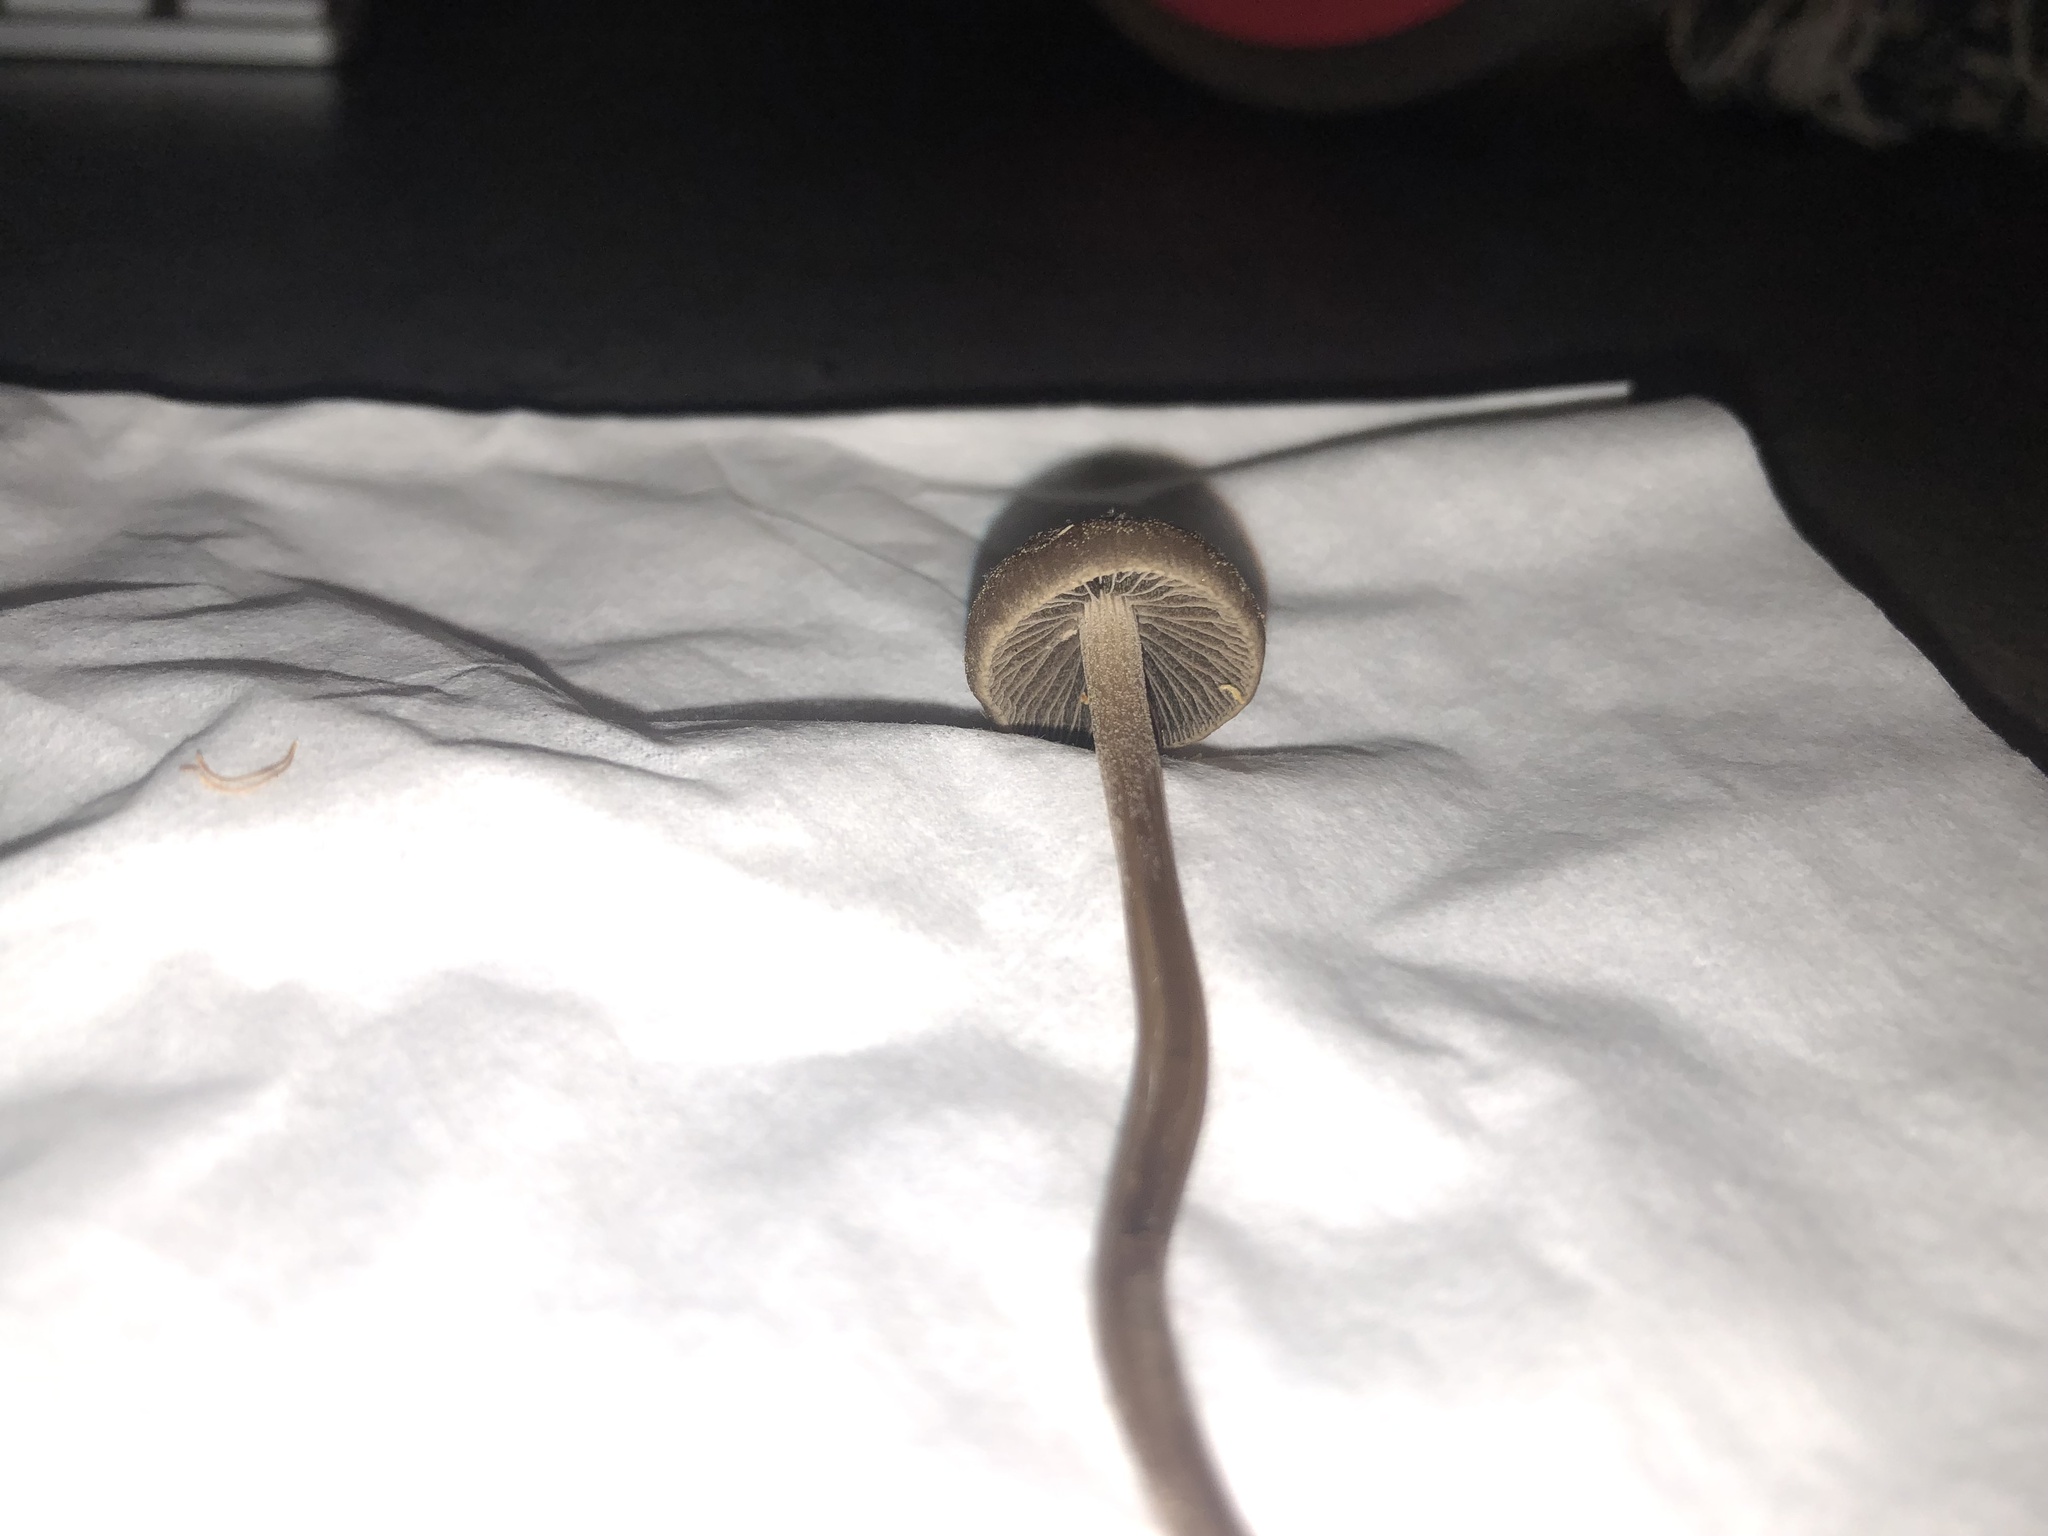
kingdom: Fungi
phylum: Basidiomycota
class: Agaricomycetes
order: Agaricales
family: Bolbitiaceae
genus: Panaeolina
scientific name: Panaeolina foenisecii
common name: Brown hay cap
